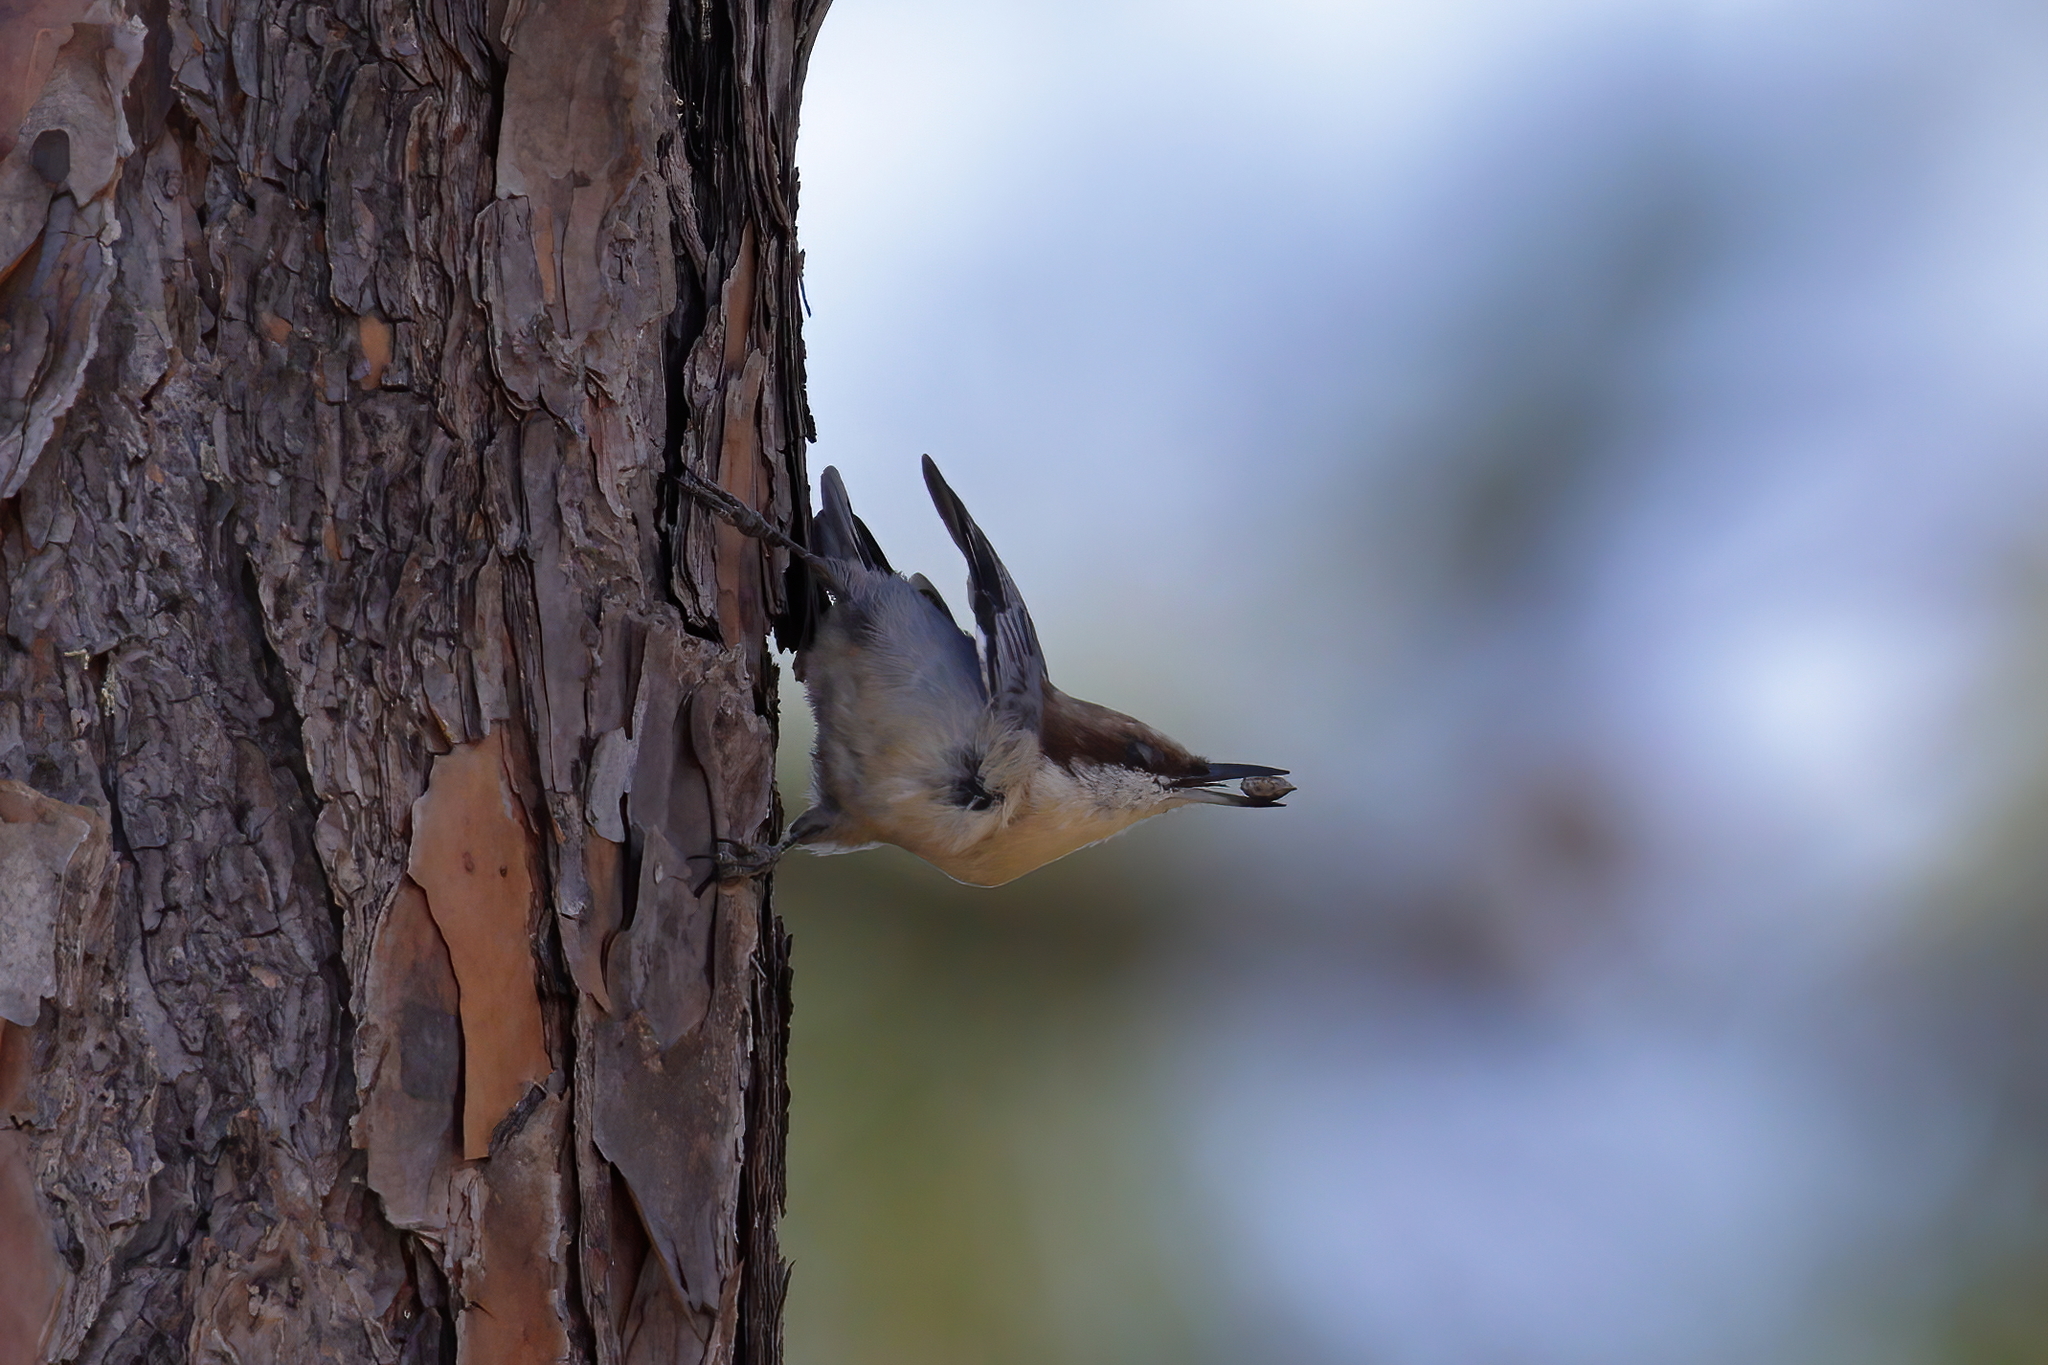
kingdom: Animalia
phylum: Chordata
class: Aves
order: Passeriformes
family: Sittidae
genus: Sitta
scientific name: Sitta pusilla
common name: Brown-headed nuthatch
